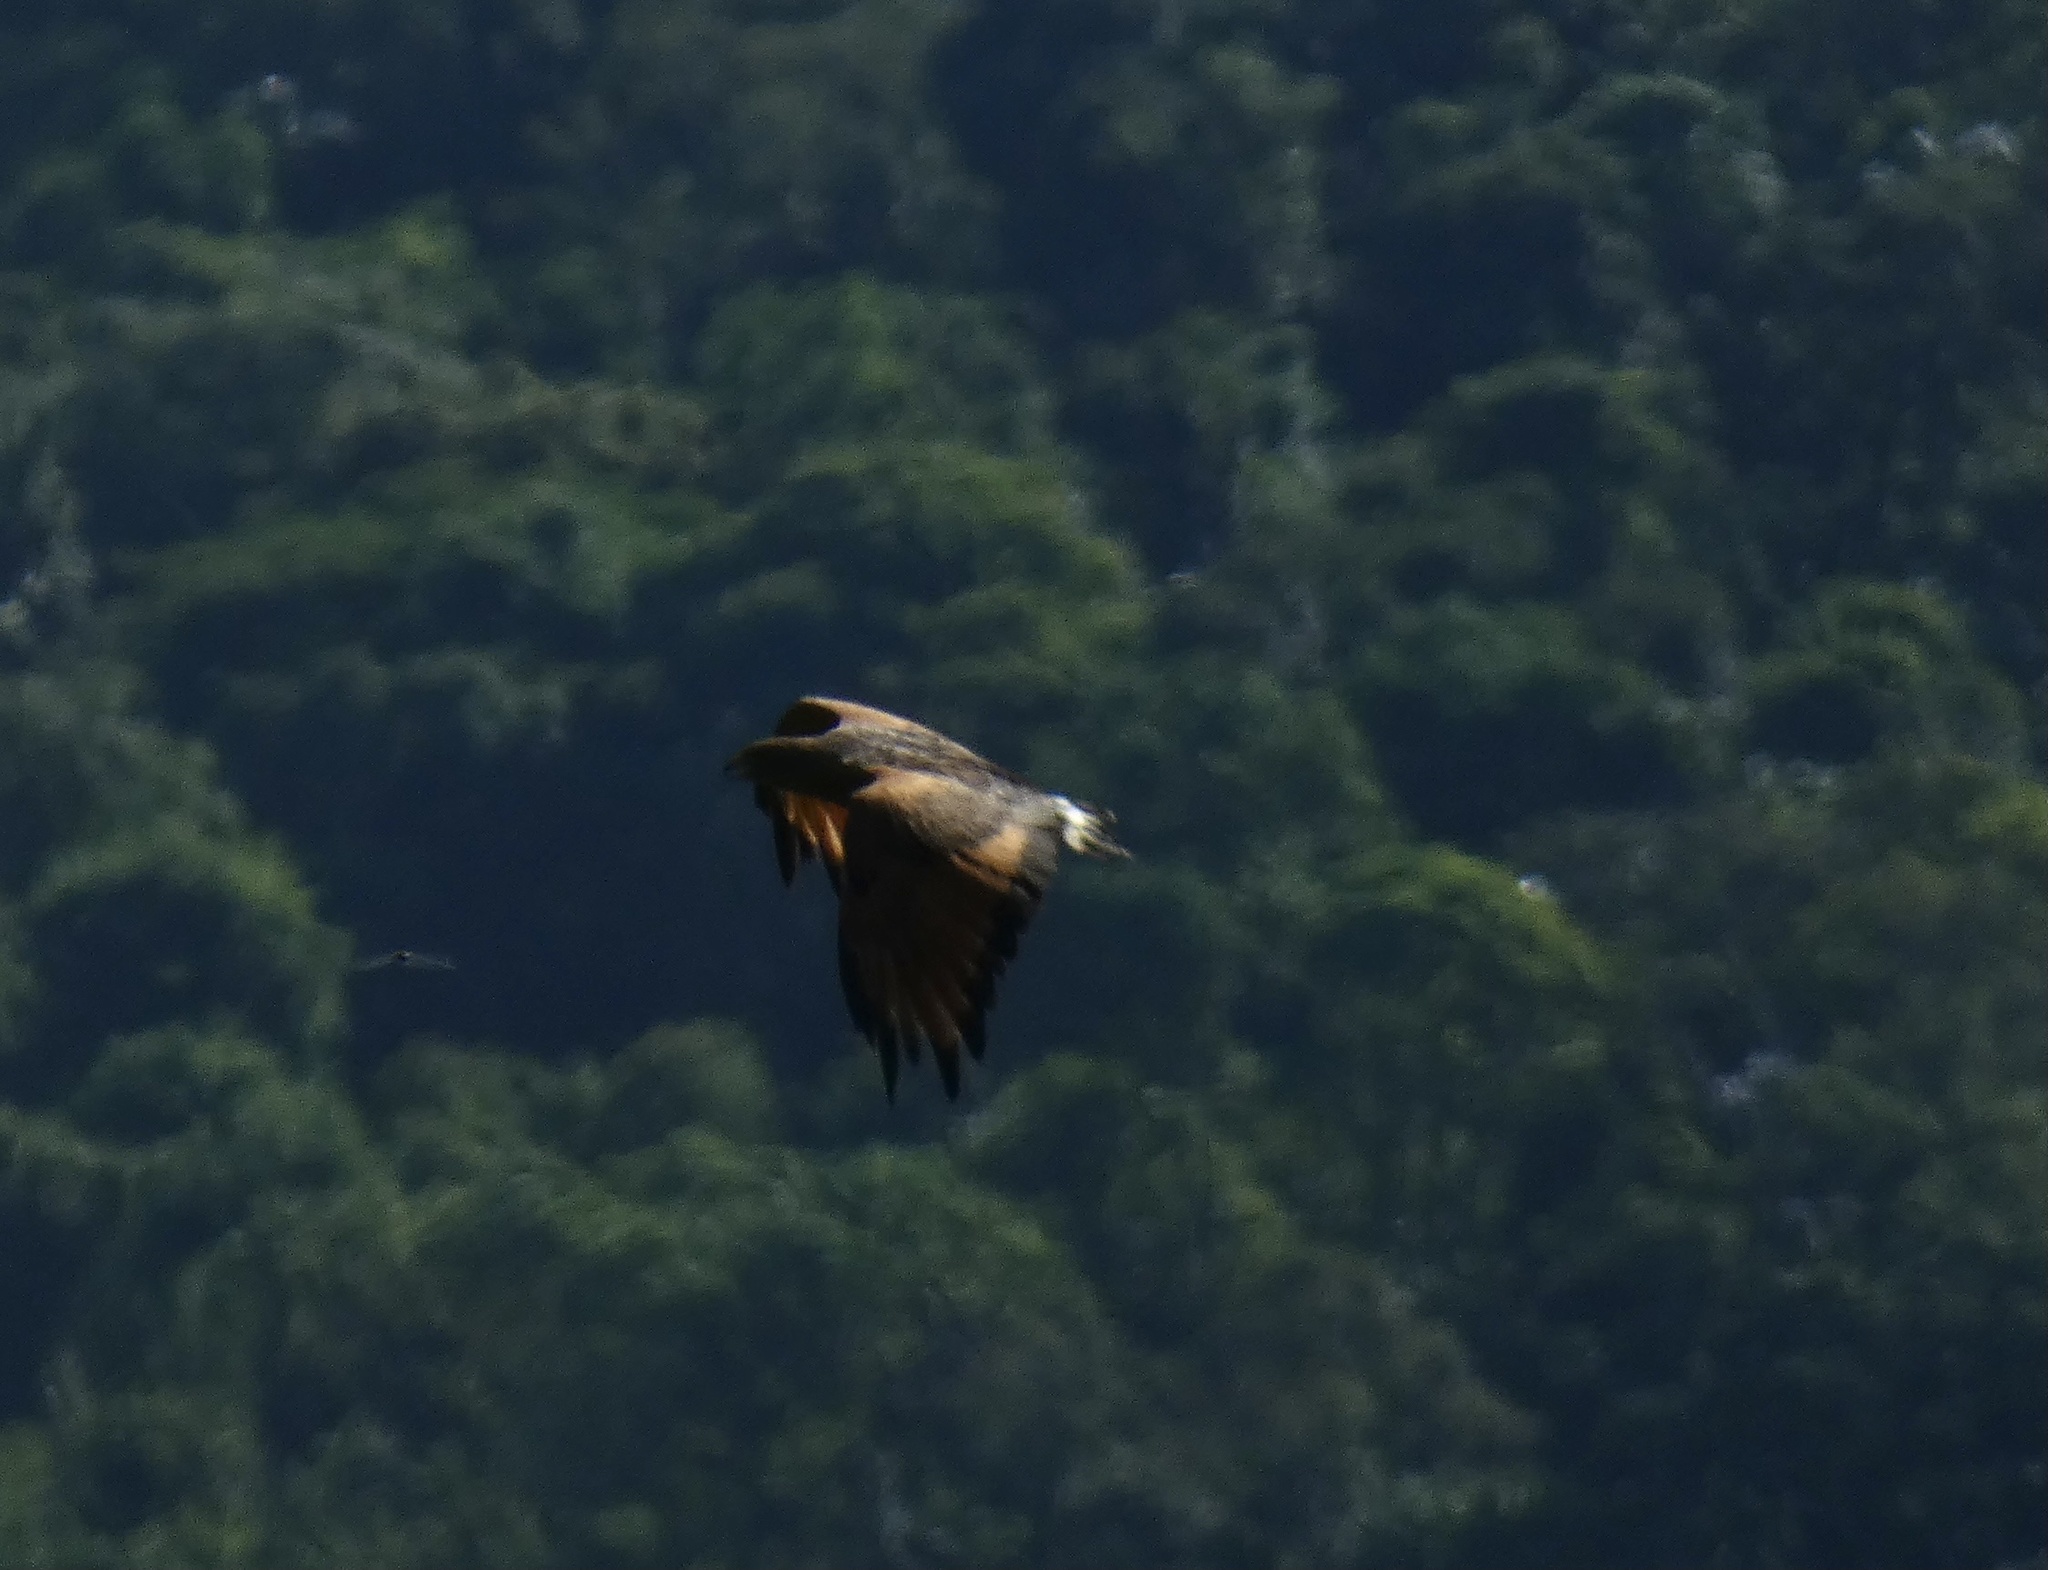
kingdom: Animalia
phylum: Chordata
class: Aves
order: Accipitriformes
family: Accipitridae
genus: Buteogallus
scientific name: Buteogallus meridionalis
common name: Savanna hawk
